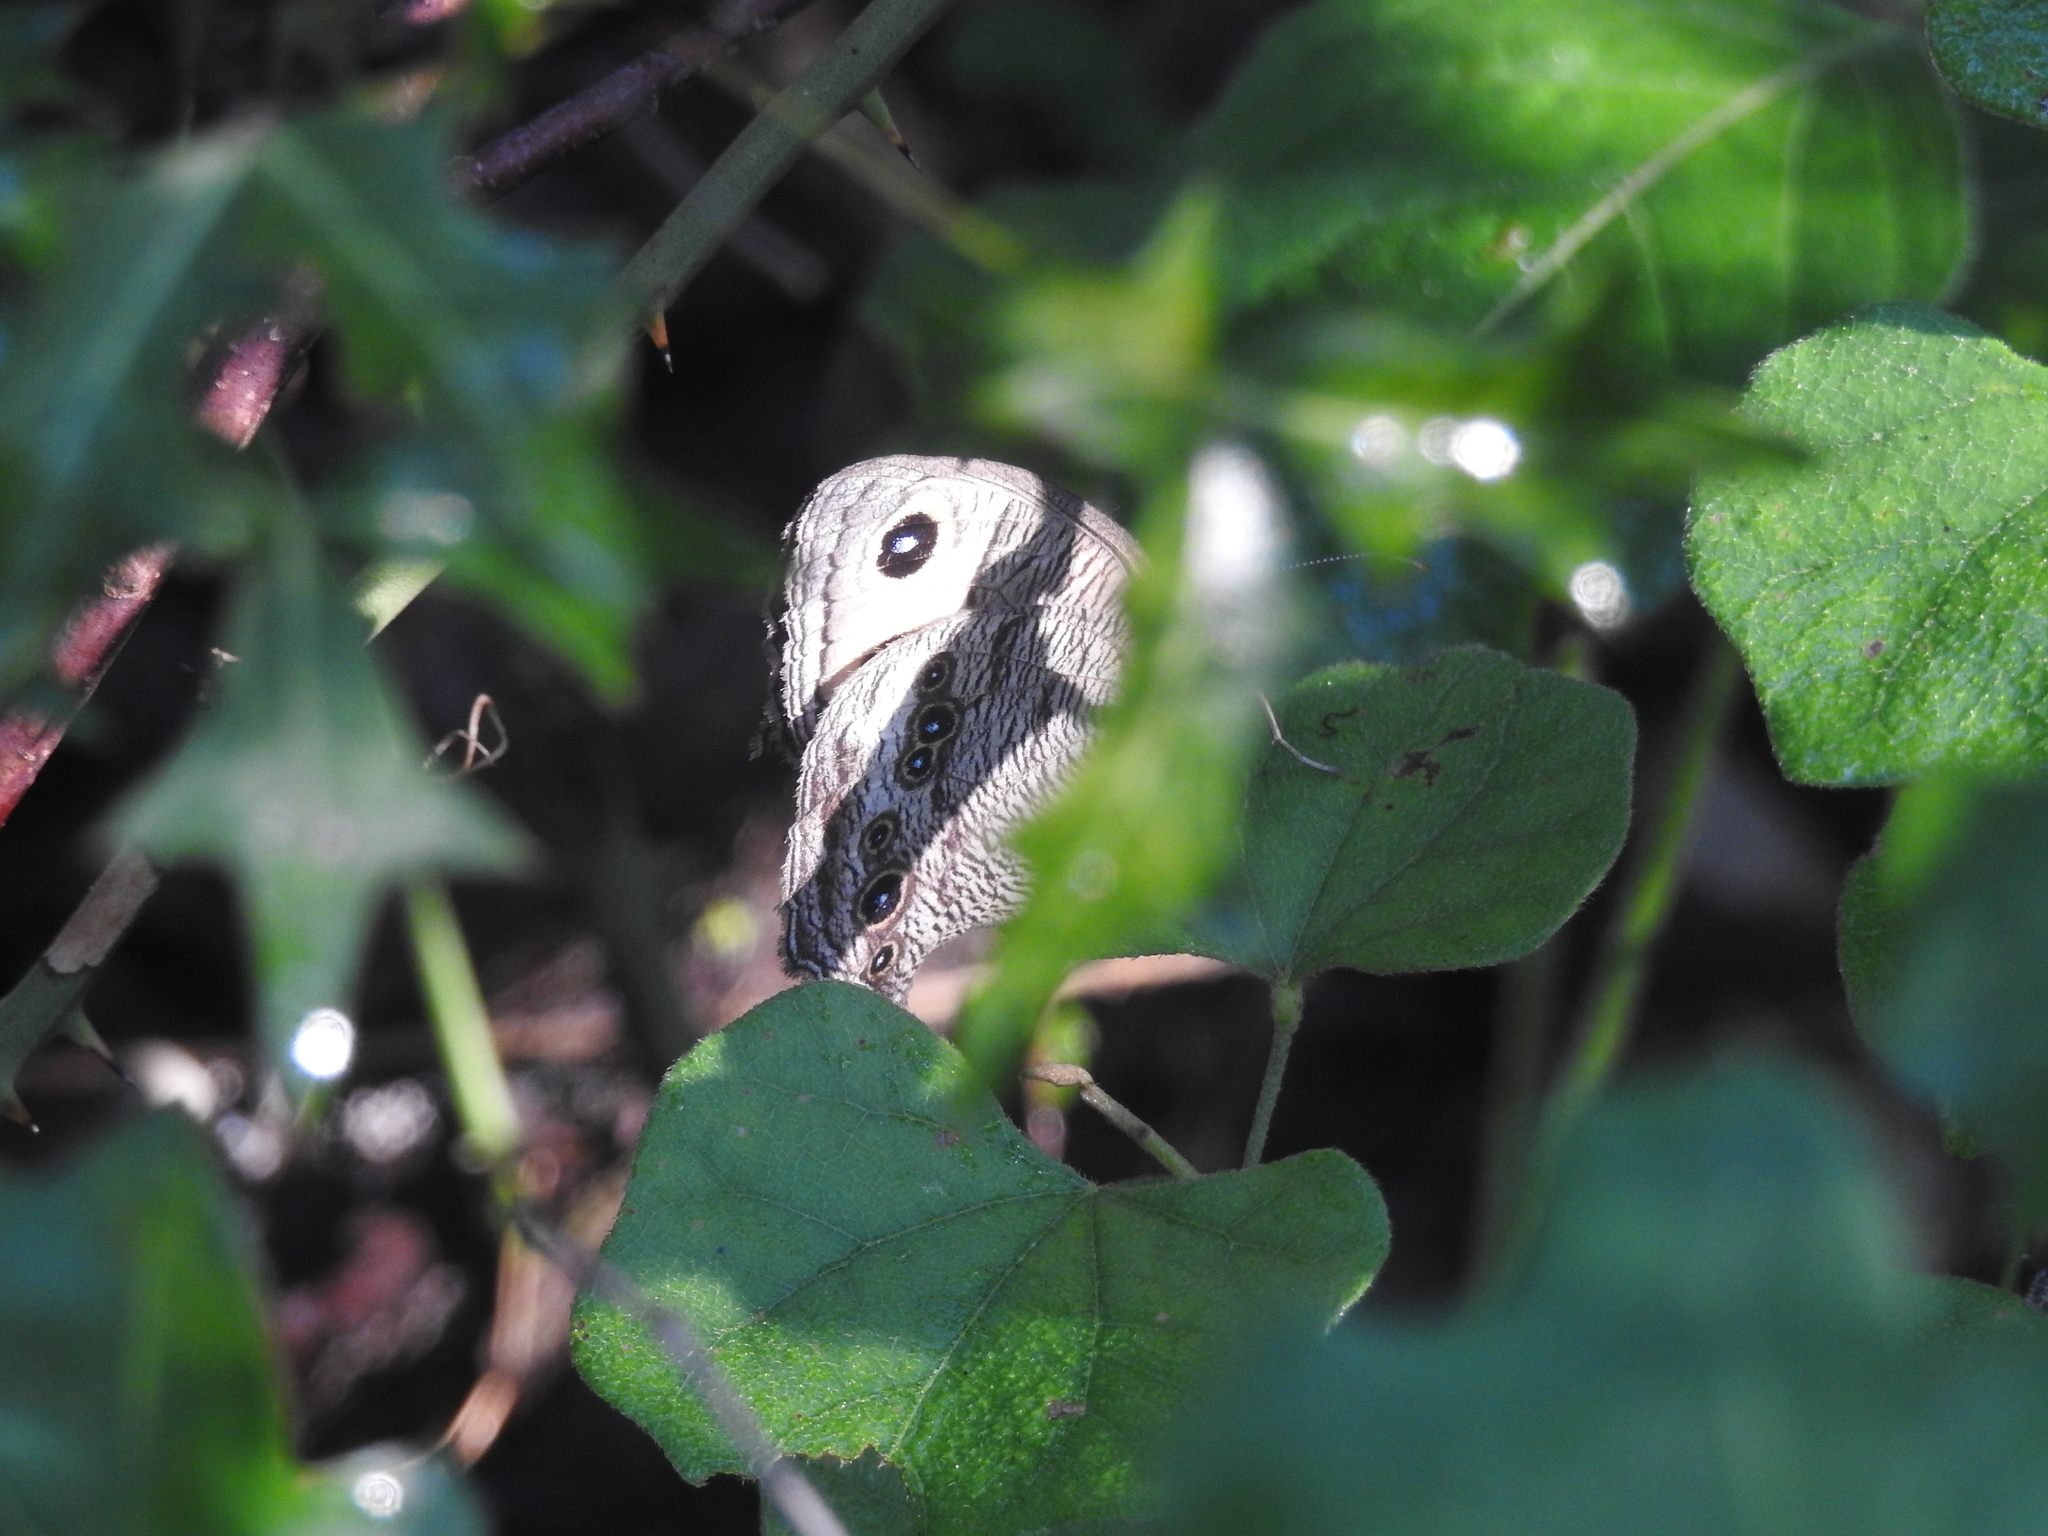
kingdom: Animalia
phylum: Arthropoda
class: Insecta
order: Lepidoptera
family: Nymphalidae
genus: Cercyonis
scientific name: Cercyonis pegala
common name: Common wood-nymph
